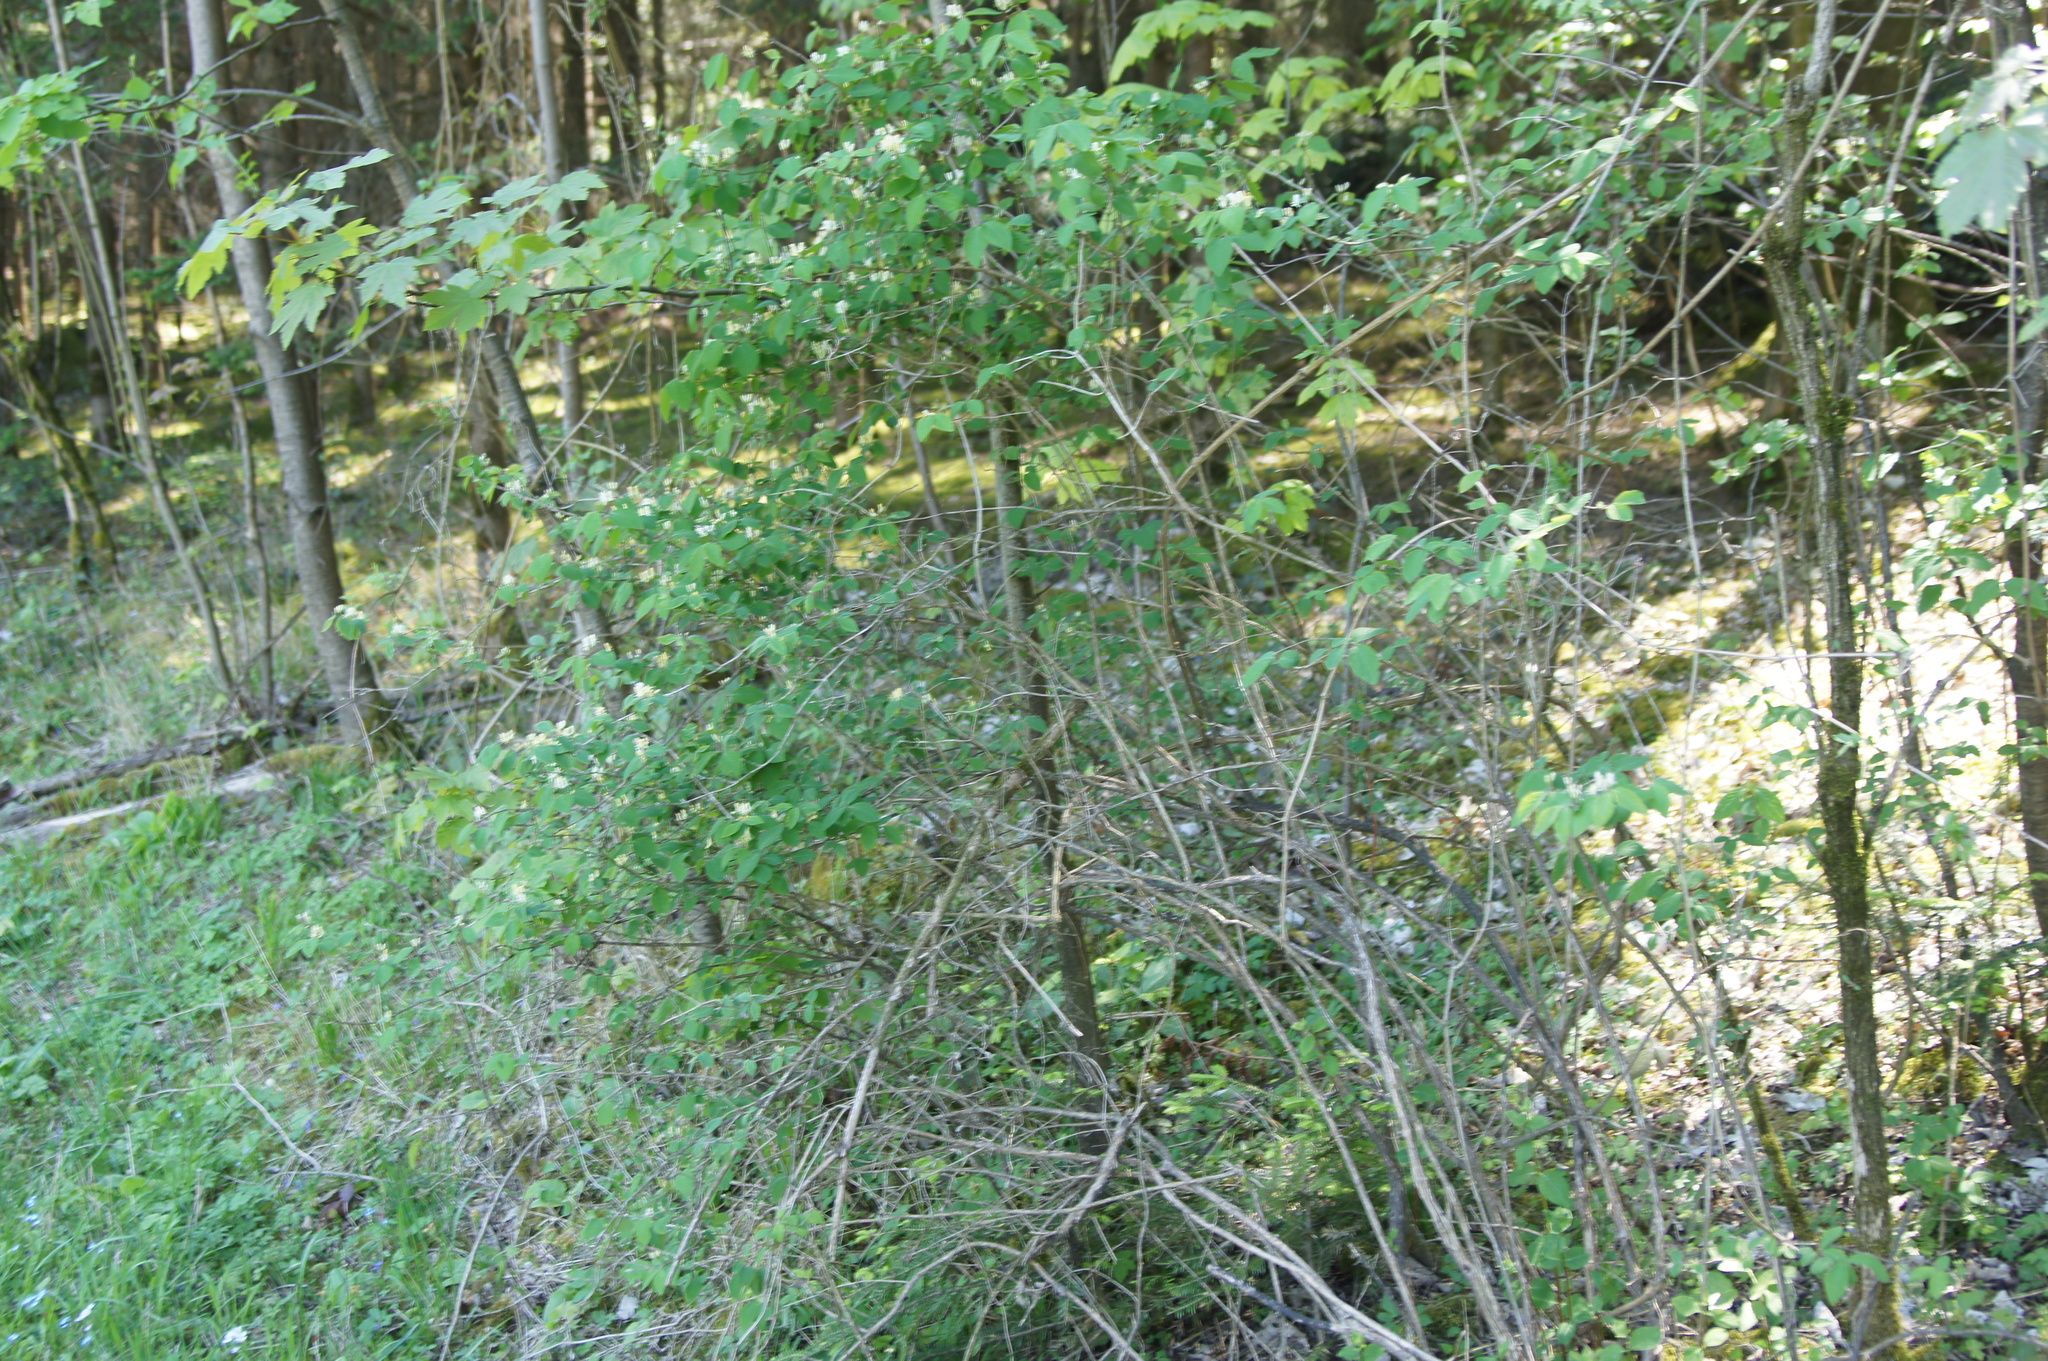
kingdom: Plantae
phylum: Tracheophyta
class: Magnoliopsida
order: Dipsacales
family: Caprifoliaceae
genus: Lonicera
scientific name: Lonicera xylosteum
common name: Fly honeysuckle
